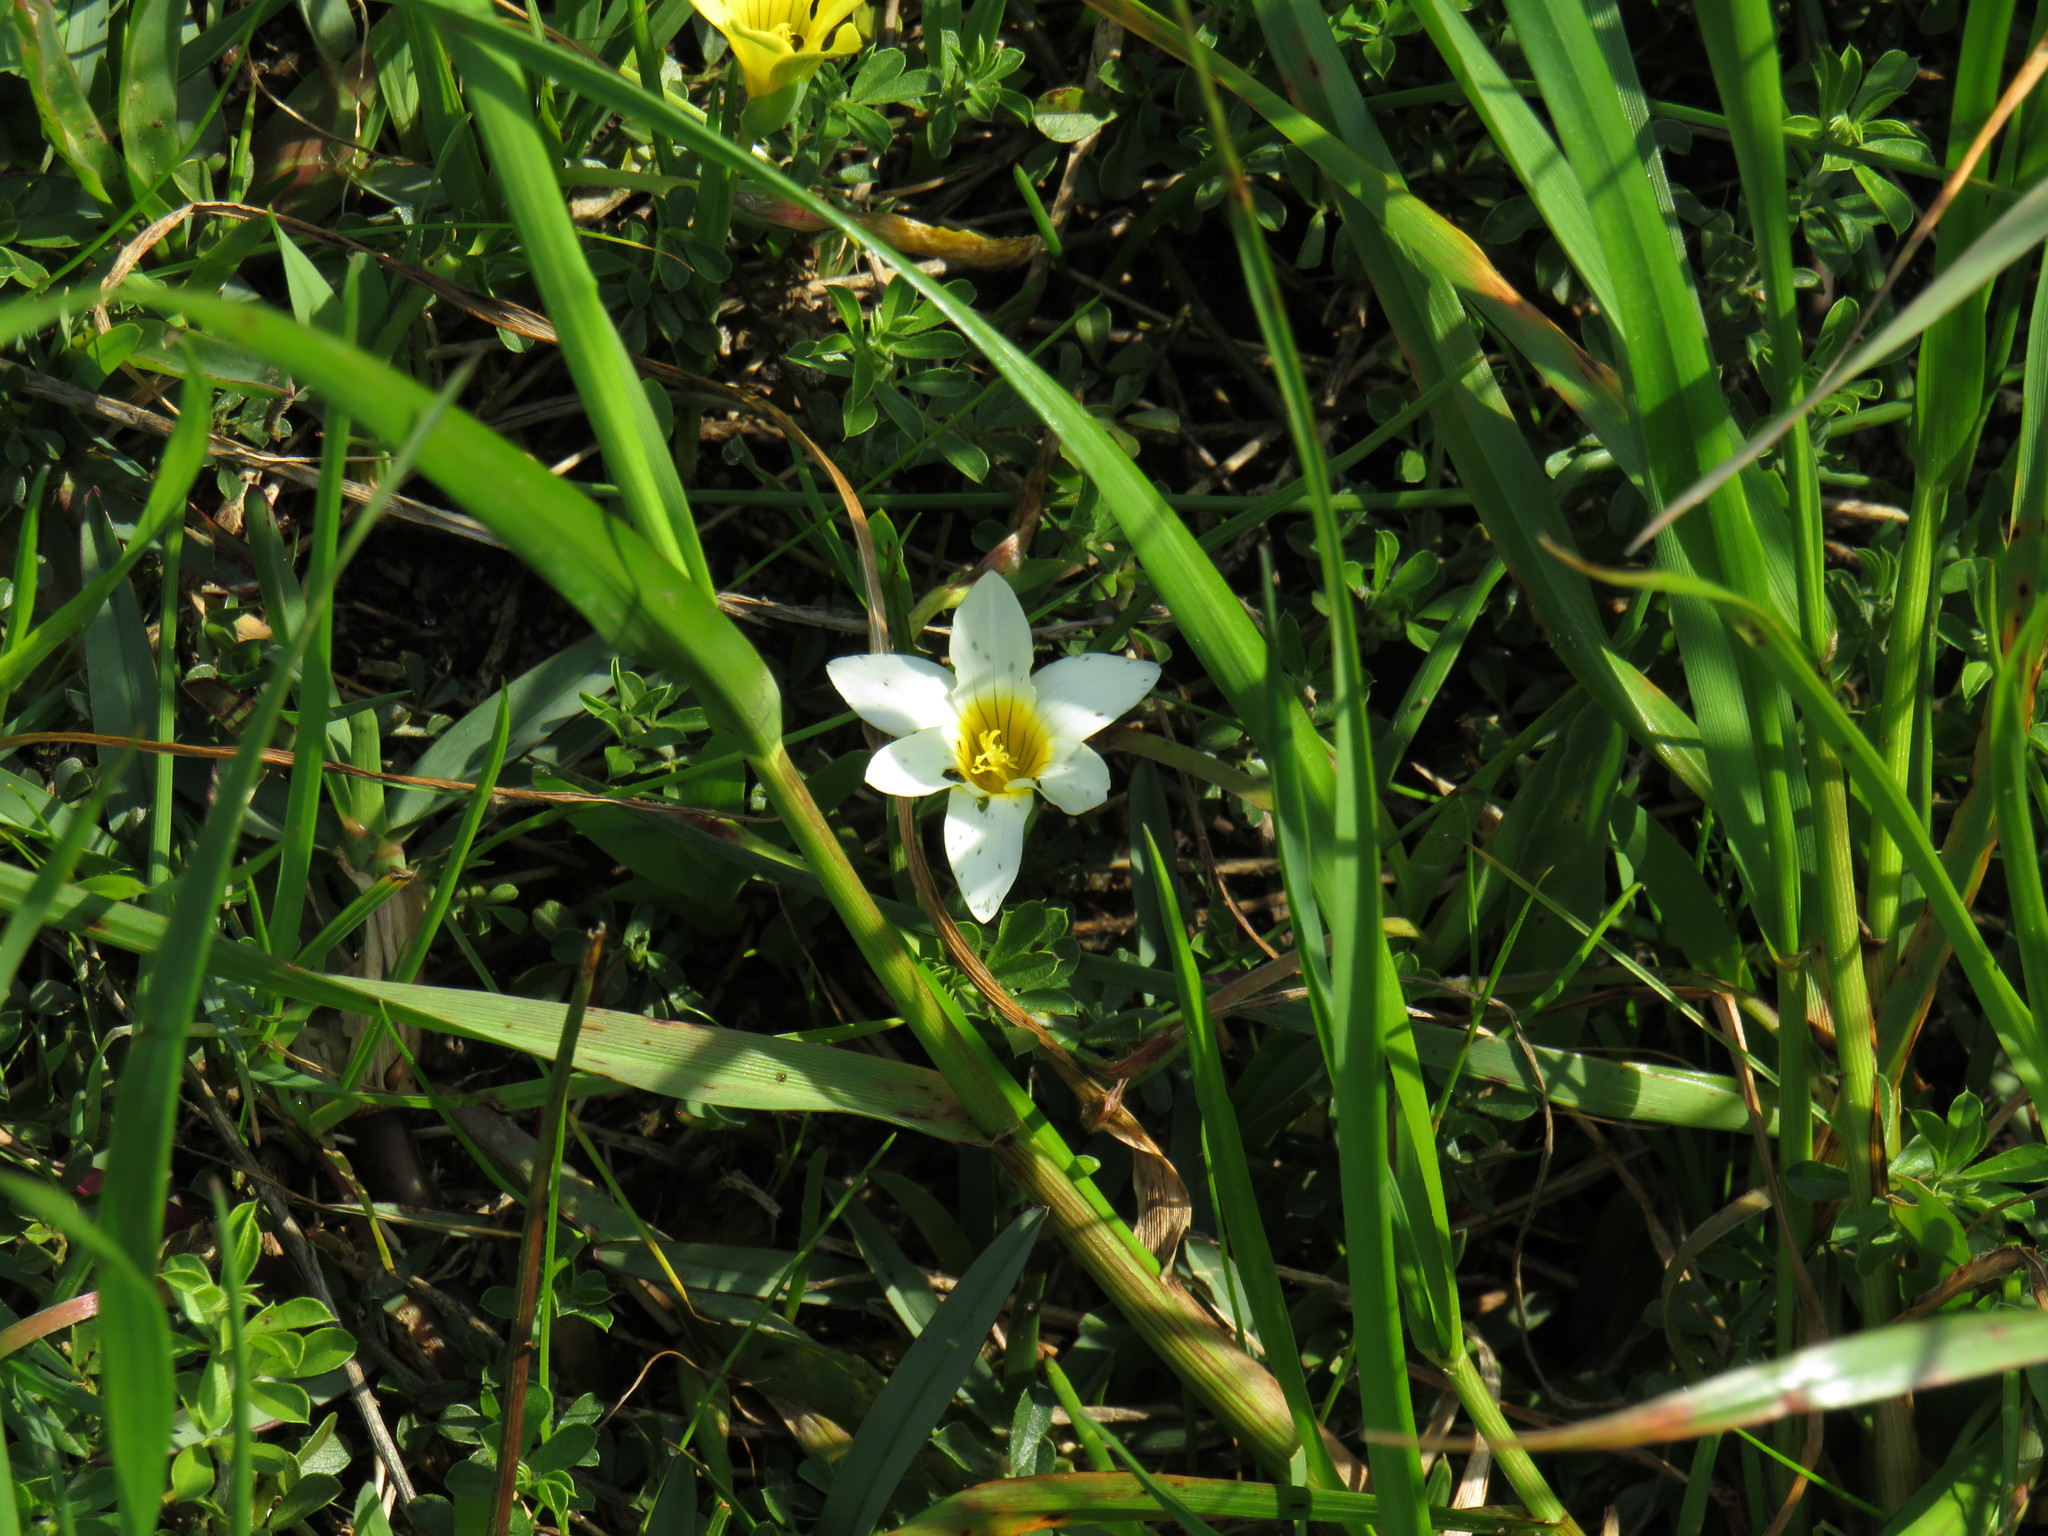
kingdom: Plantae
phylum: Tracheophyta
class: Liliopsida
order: Asparagales
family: Iridaceae
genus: Romulea
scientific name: Romulea flava
